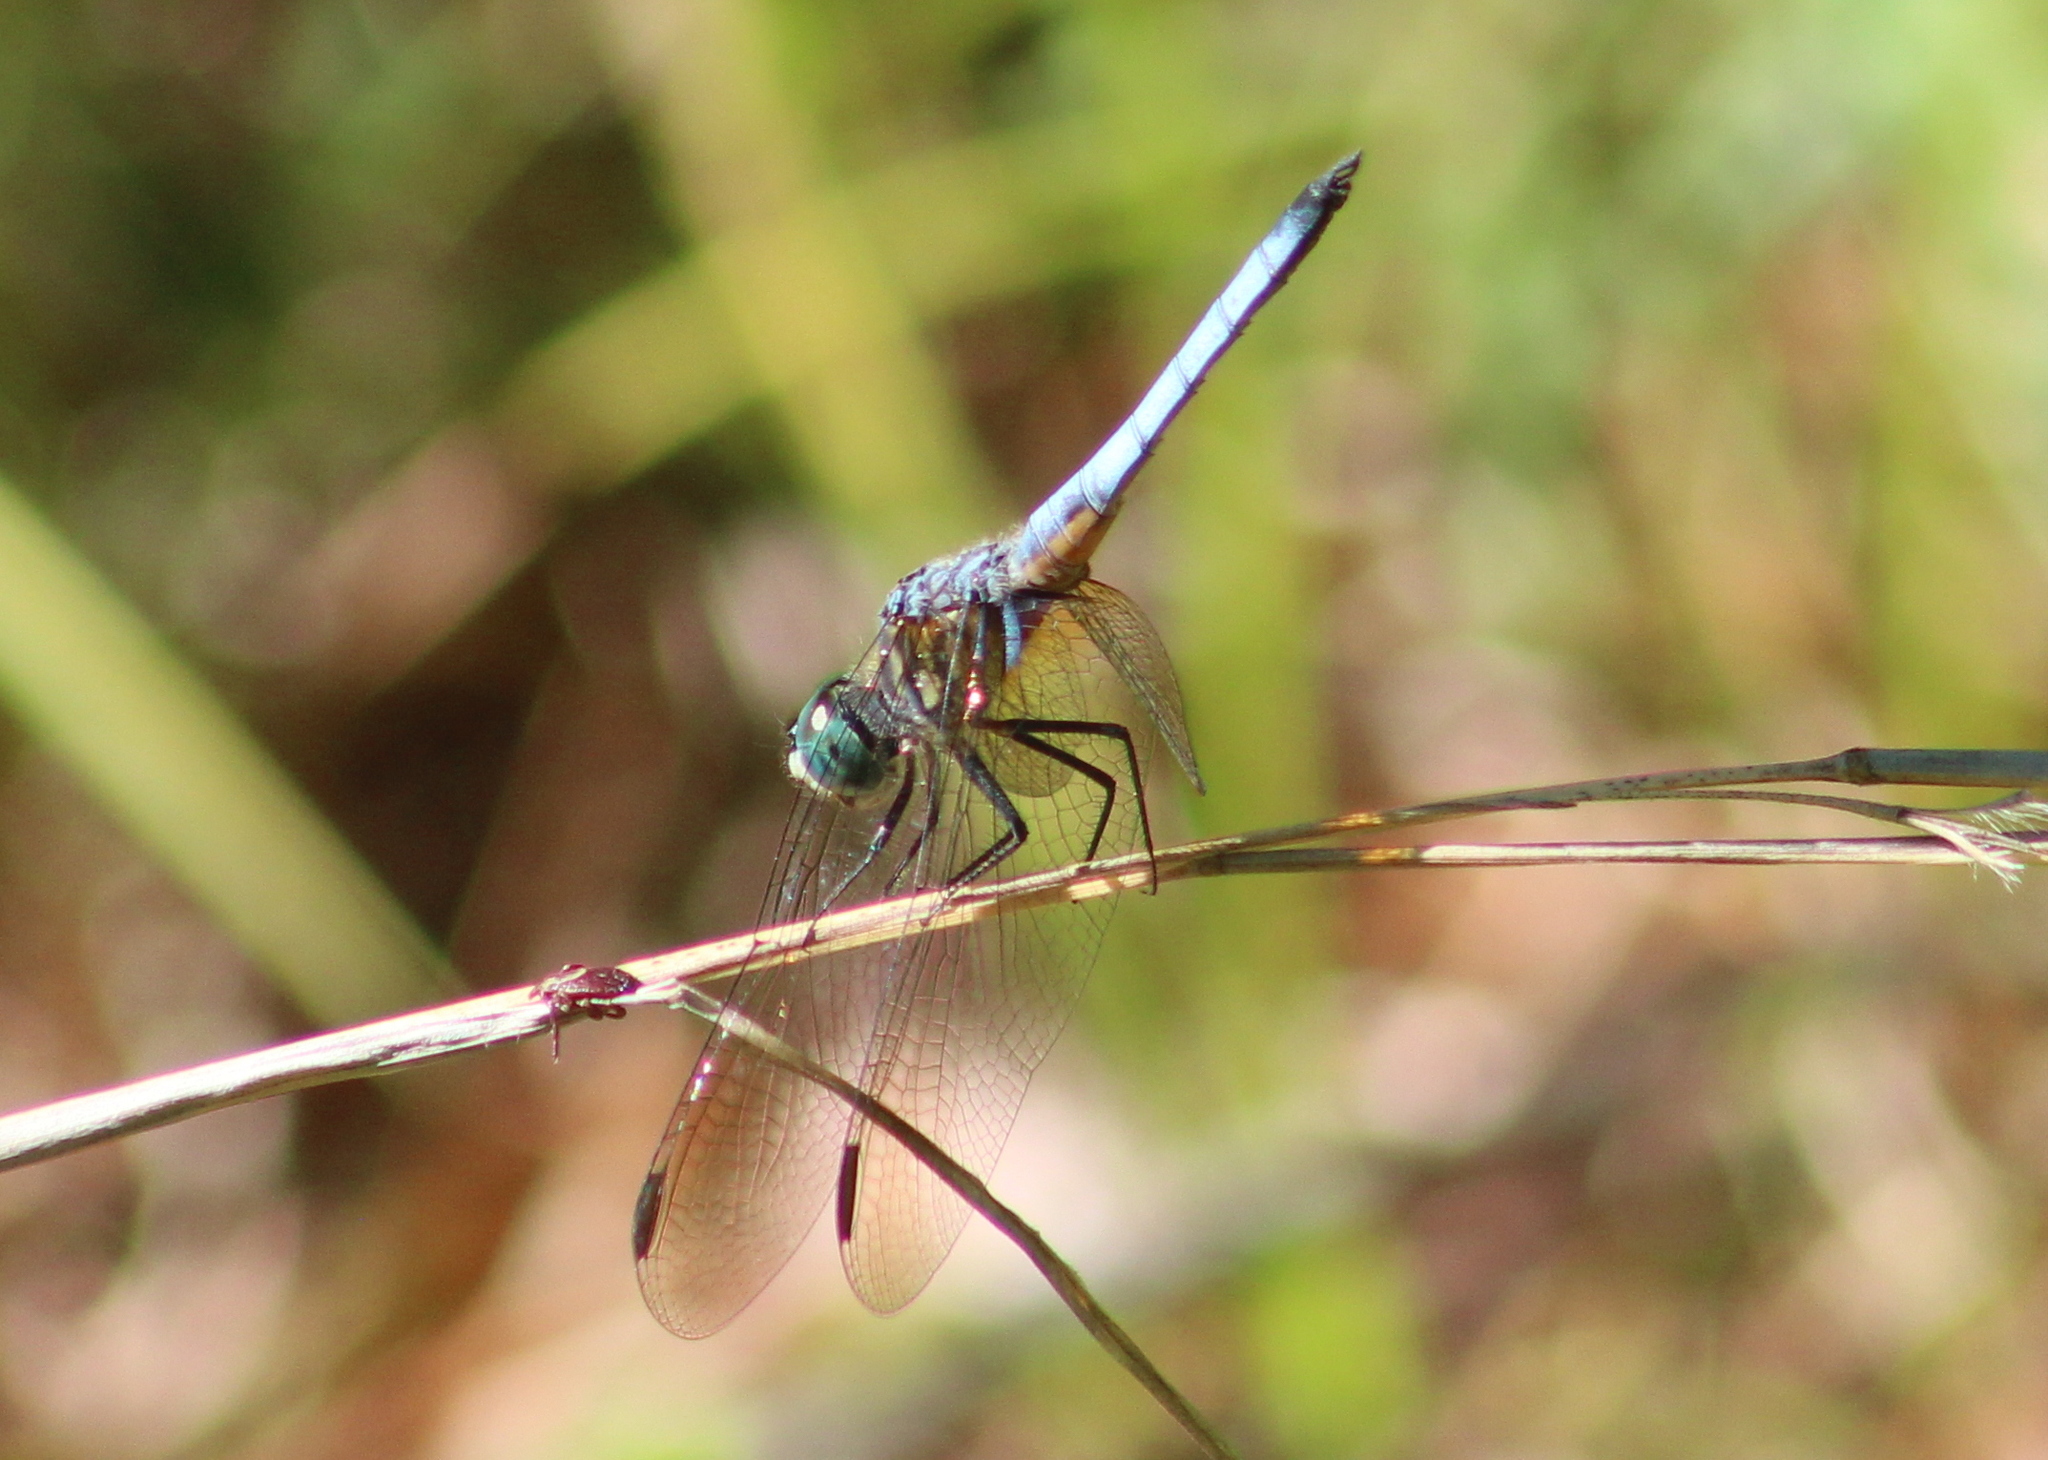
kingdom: Animalia
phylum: Arthropoda
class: Insecta
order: Odonata
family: Libellulidae
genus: Pachydiplax
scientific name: Pachydiplax longipennis
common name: Blue dasher
